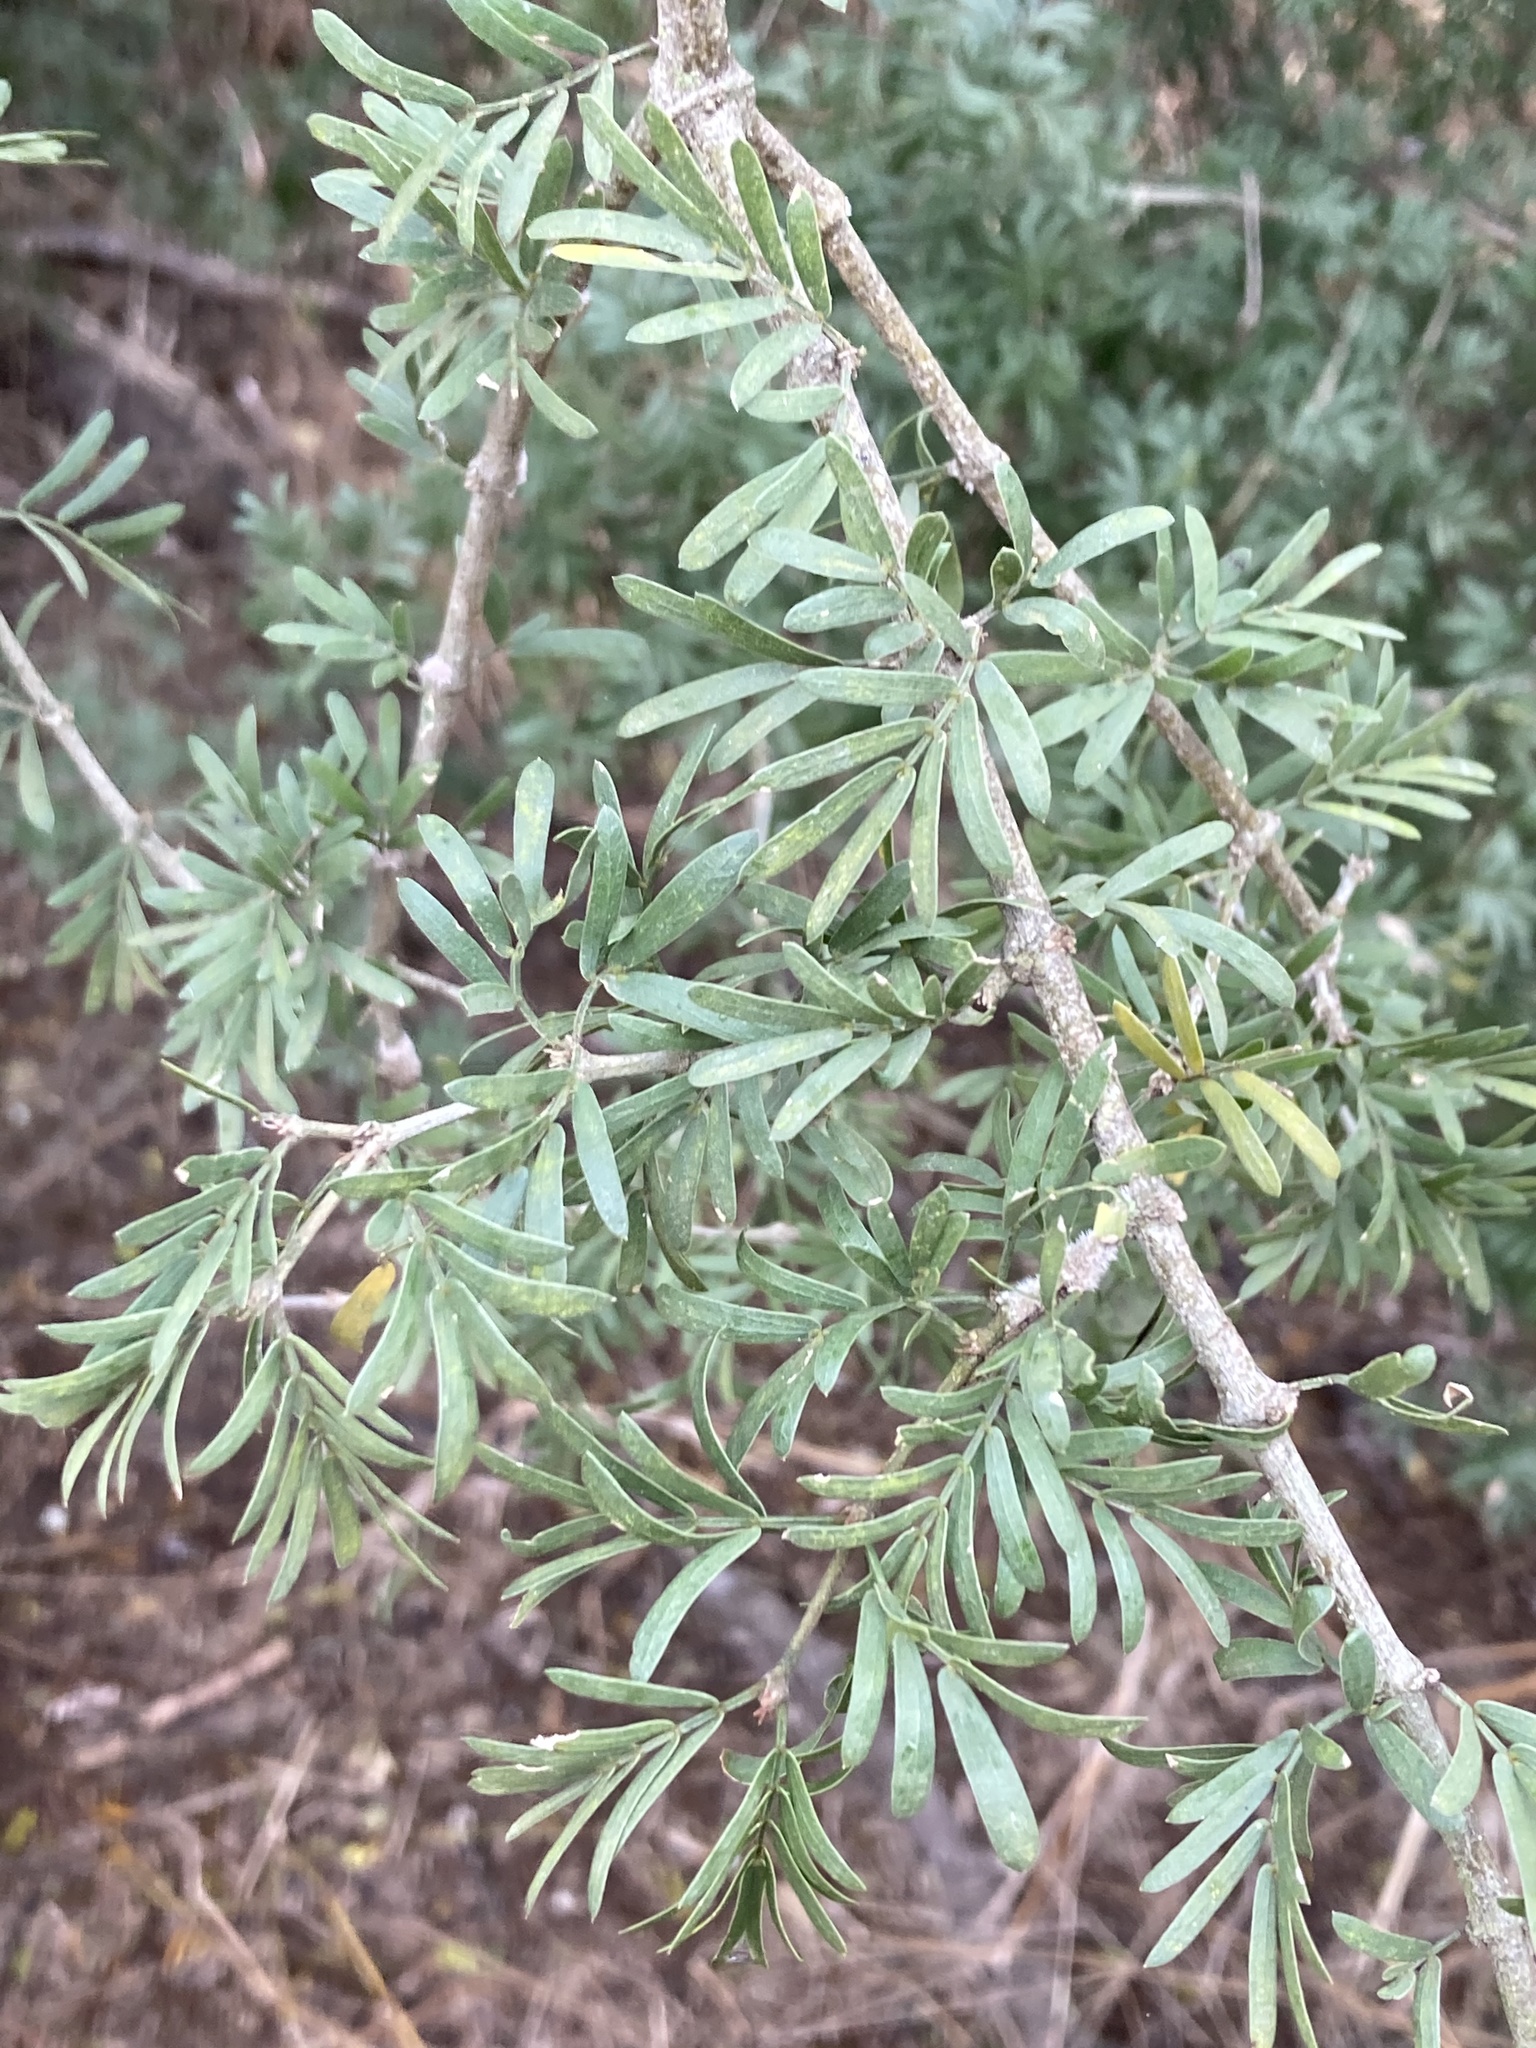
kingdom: Plantae
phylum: Tracheophyta
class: Magnoliopsida
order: Zygophyllales
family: Zygophyllaceae
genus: Porlieria
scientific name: Porlieria angustifolia
